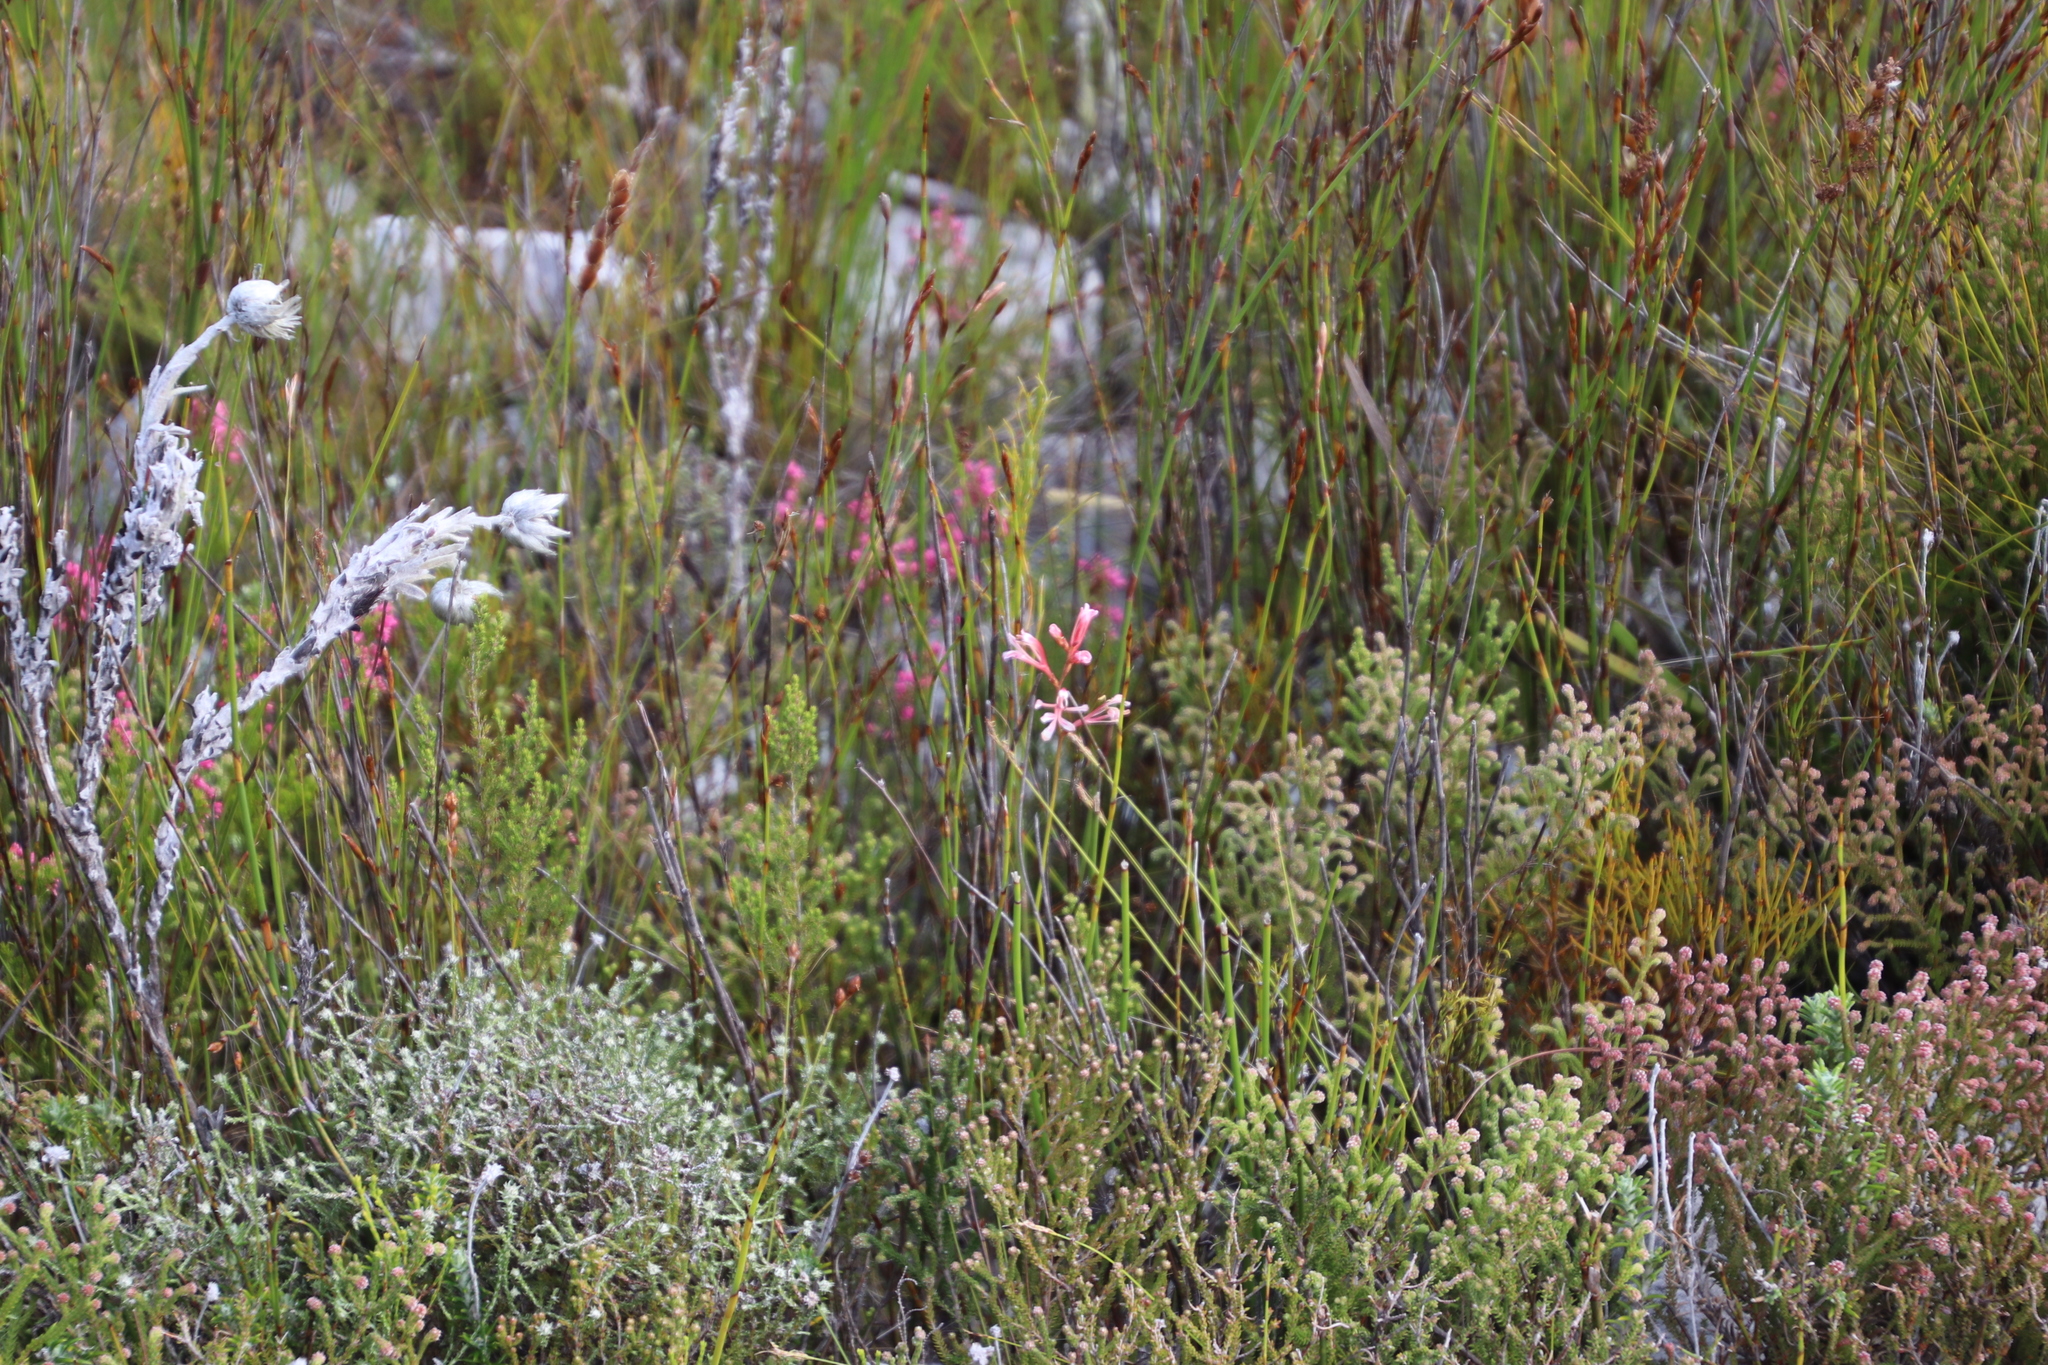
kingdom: Plantae
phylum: Tracheophyta
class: Liliopsida
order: Asparagales
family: Iridaceae
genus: Tritoniopsis
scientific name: Tritoniopsis dodii
